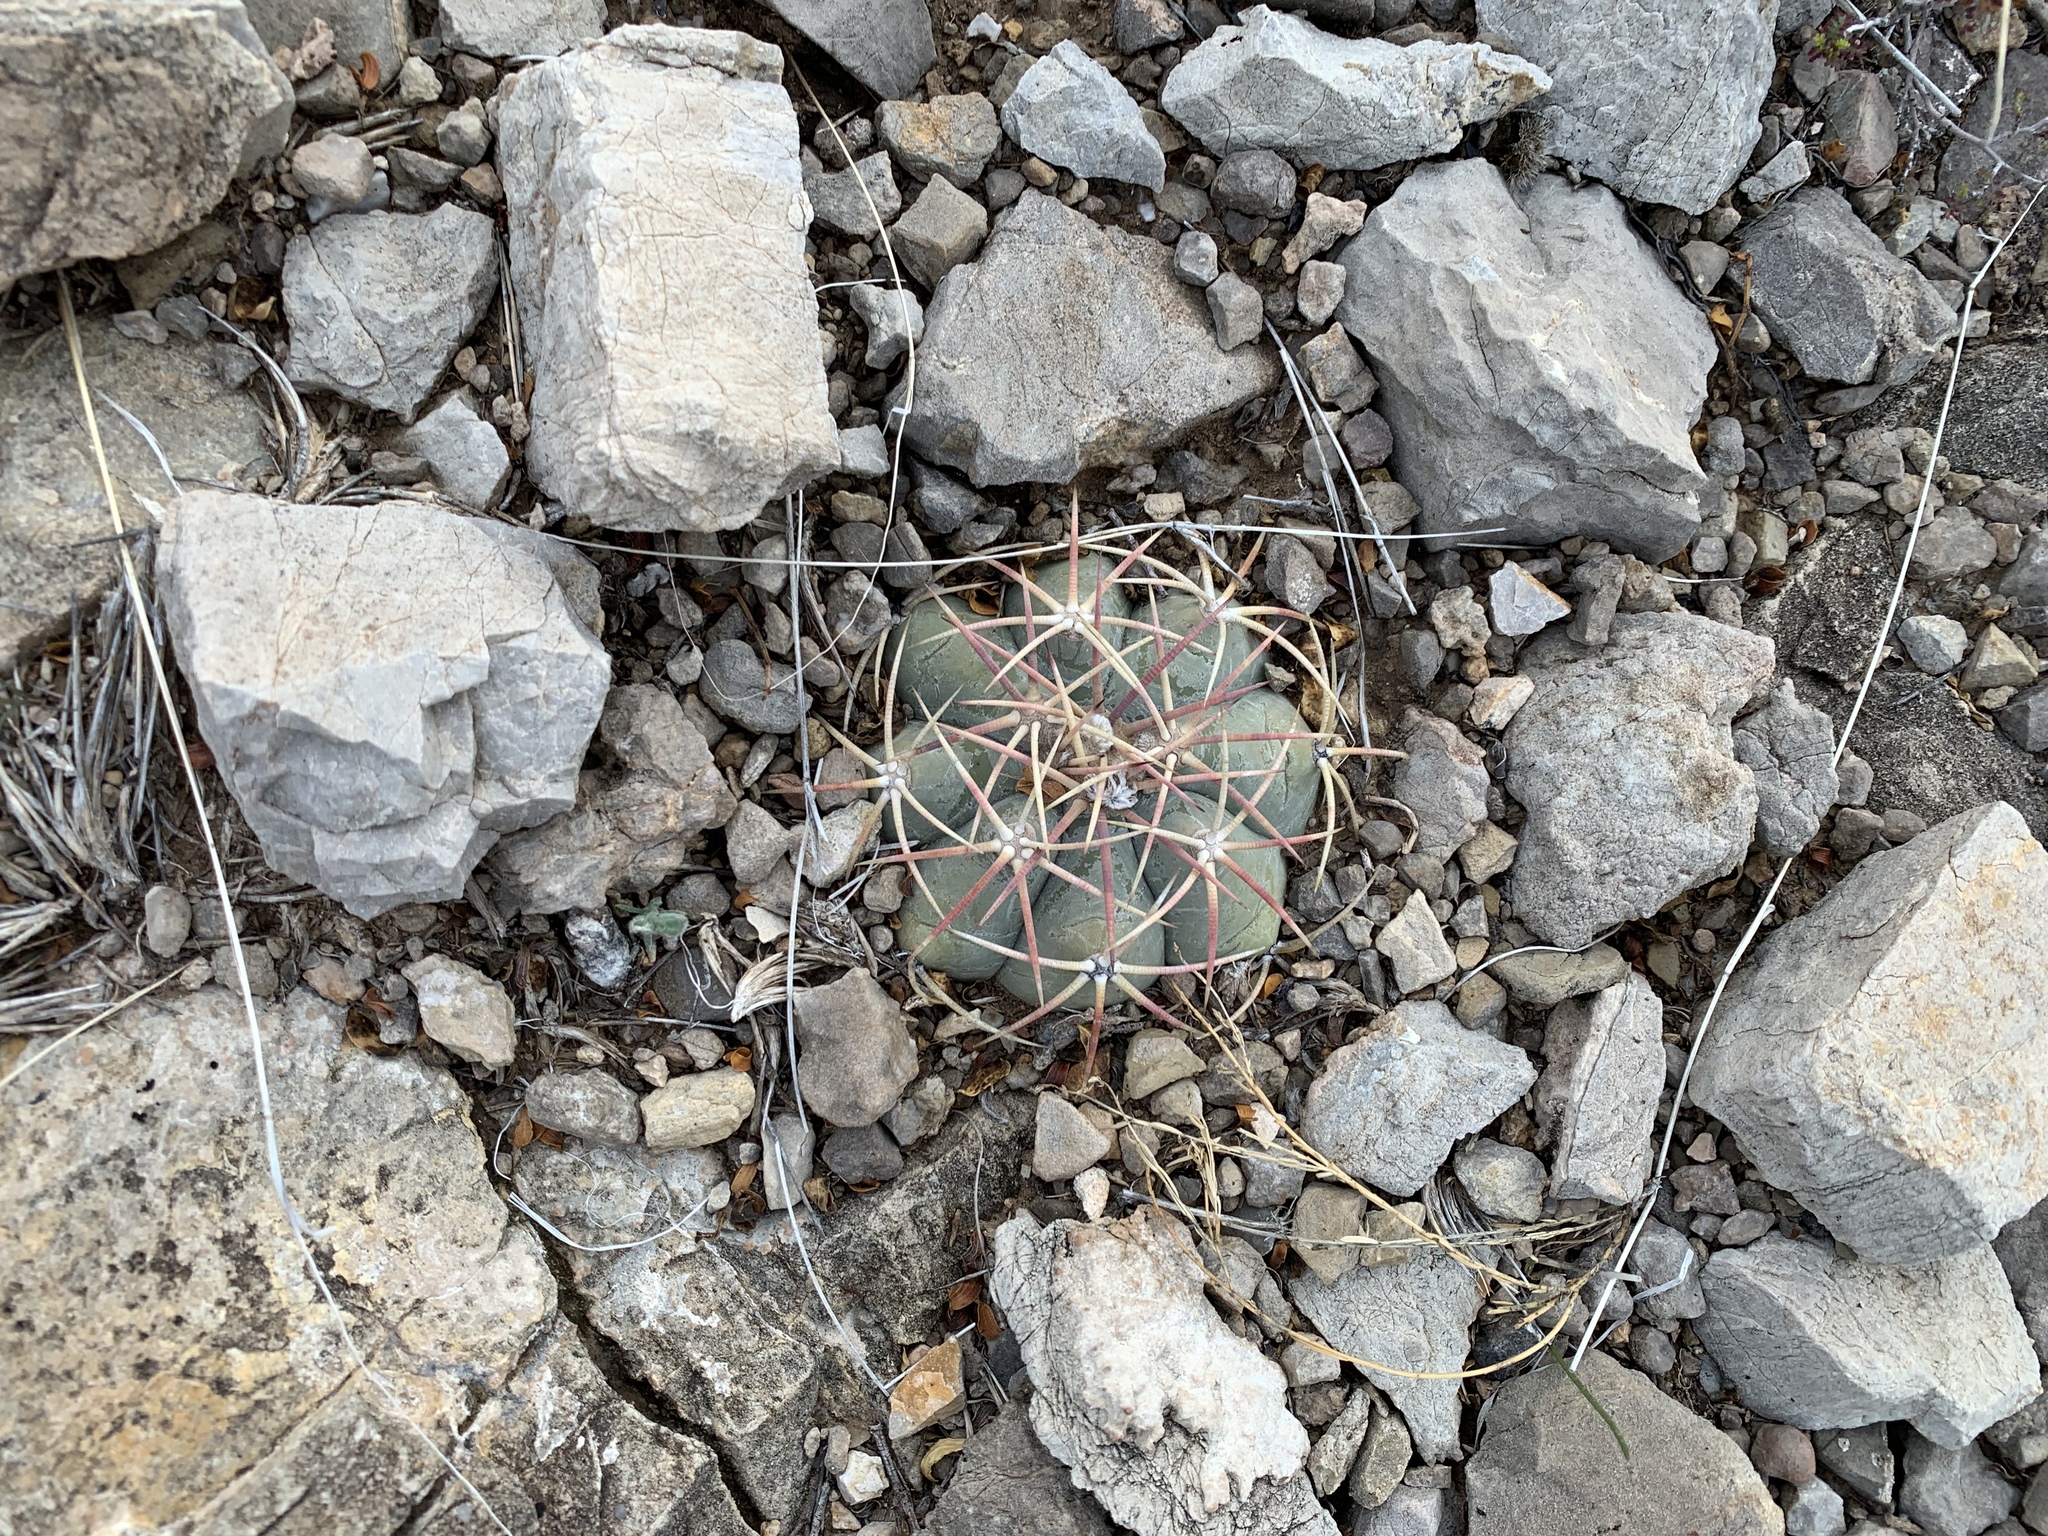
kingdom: Plantae
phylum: Tracheophyta
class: Magnoliopsida
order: Caryophyllales
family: Cactaceae
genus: Echinocactus
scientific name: Echinocactus horizonthalonius
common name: Devilshead
